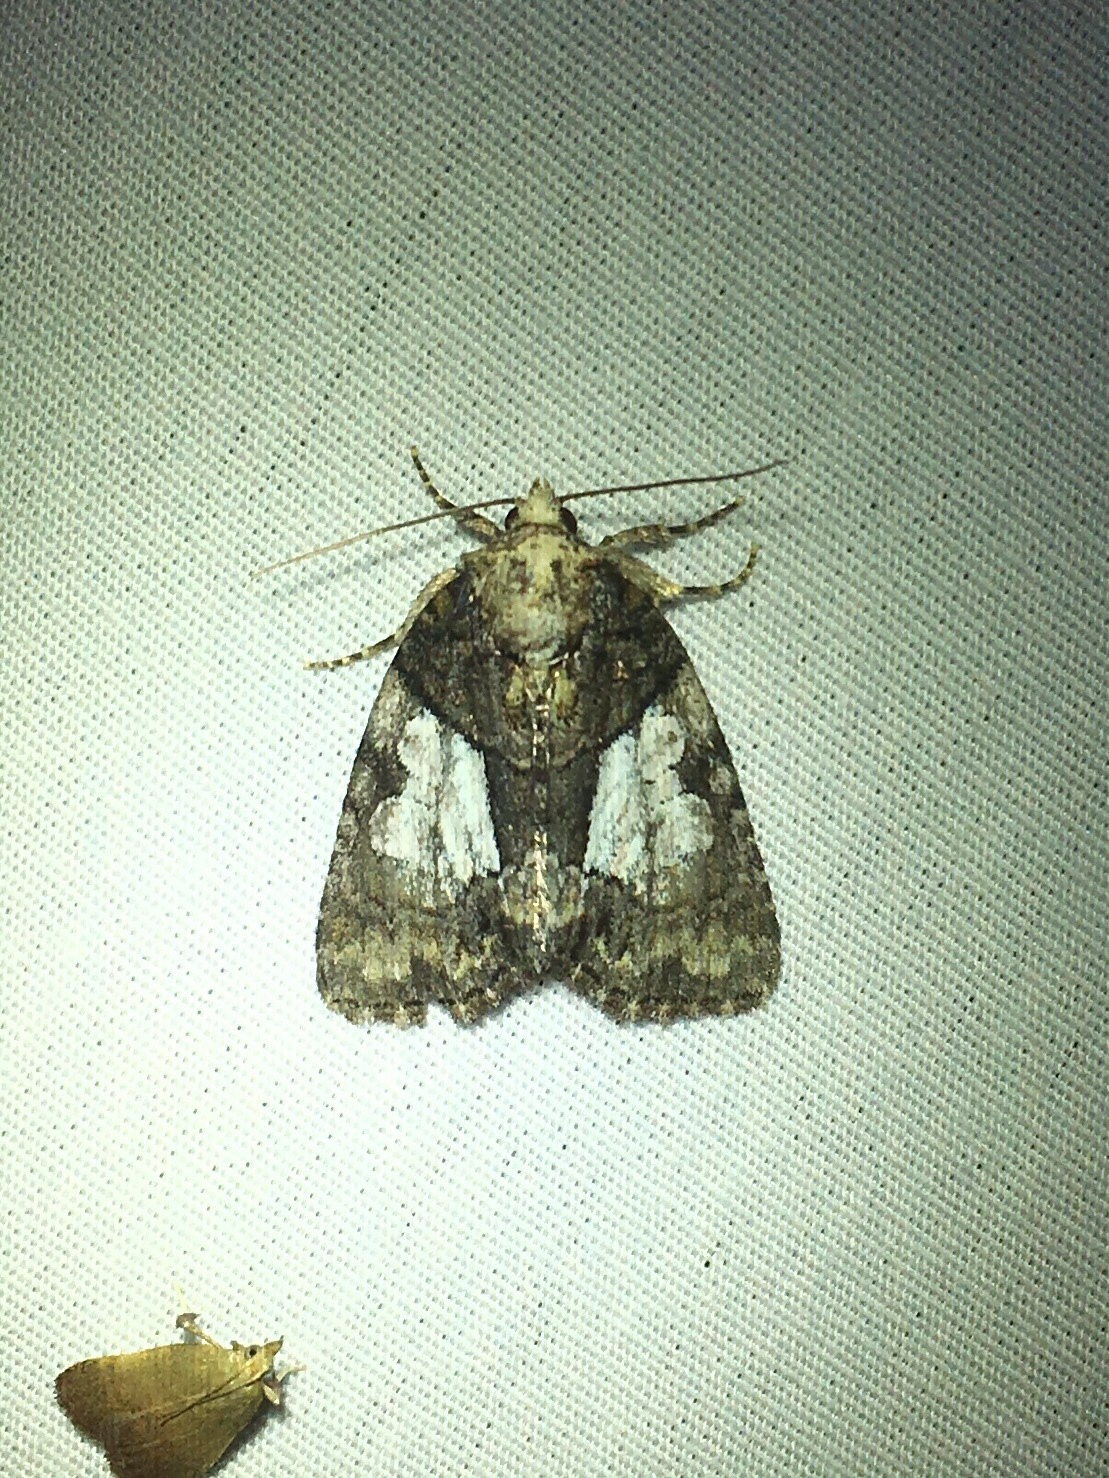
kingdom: Animalia
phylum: Arthropoda
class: Insecta
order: Lepidoptera
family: Noctuidae
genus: Chytonix
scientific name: Chytonix palliatricula
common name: Cloaked marvel
